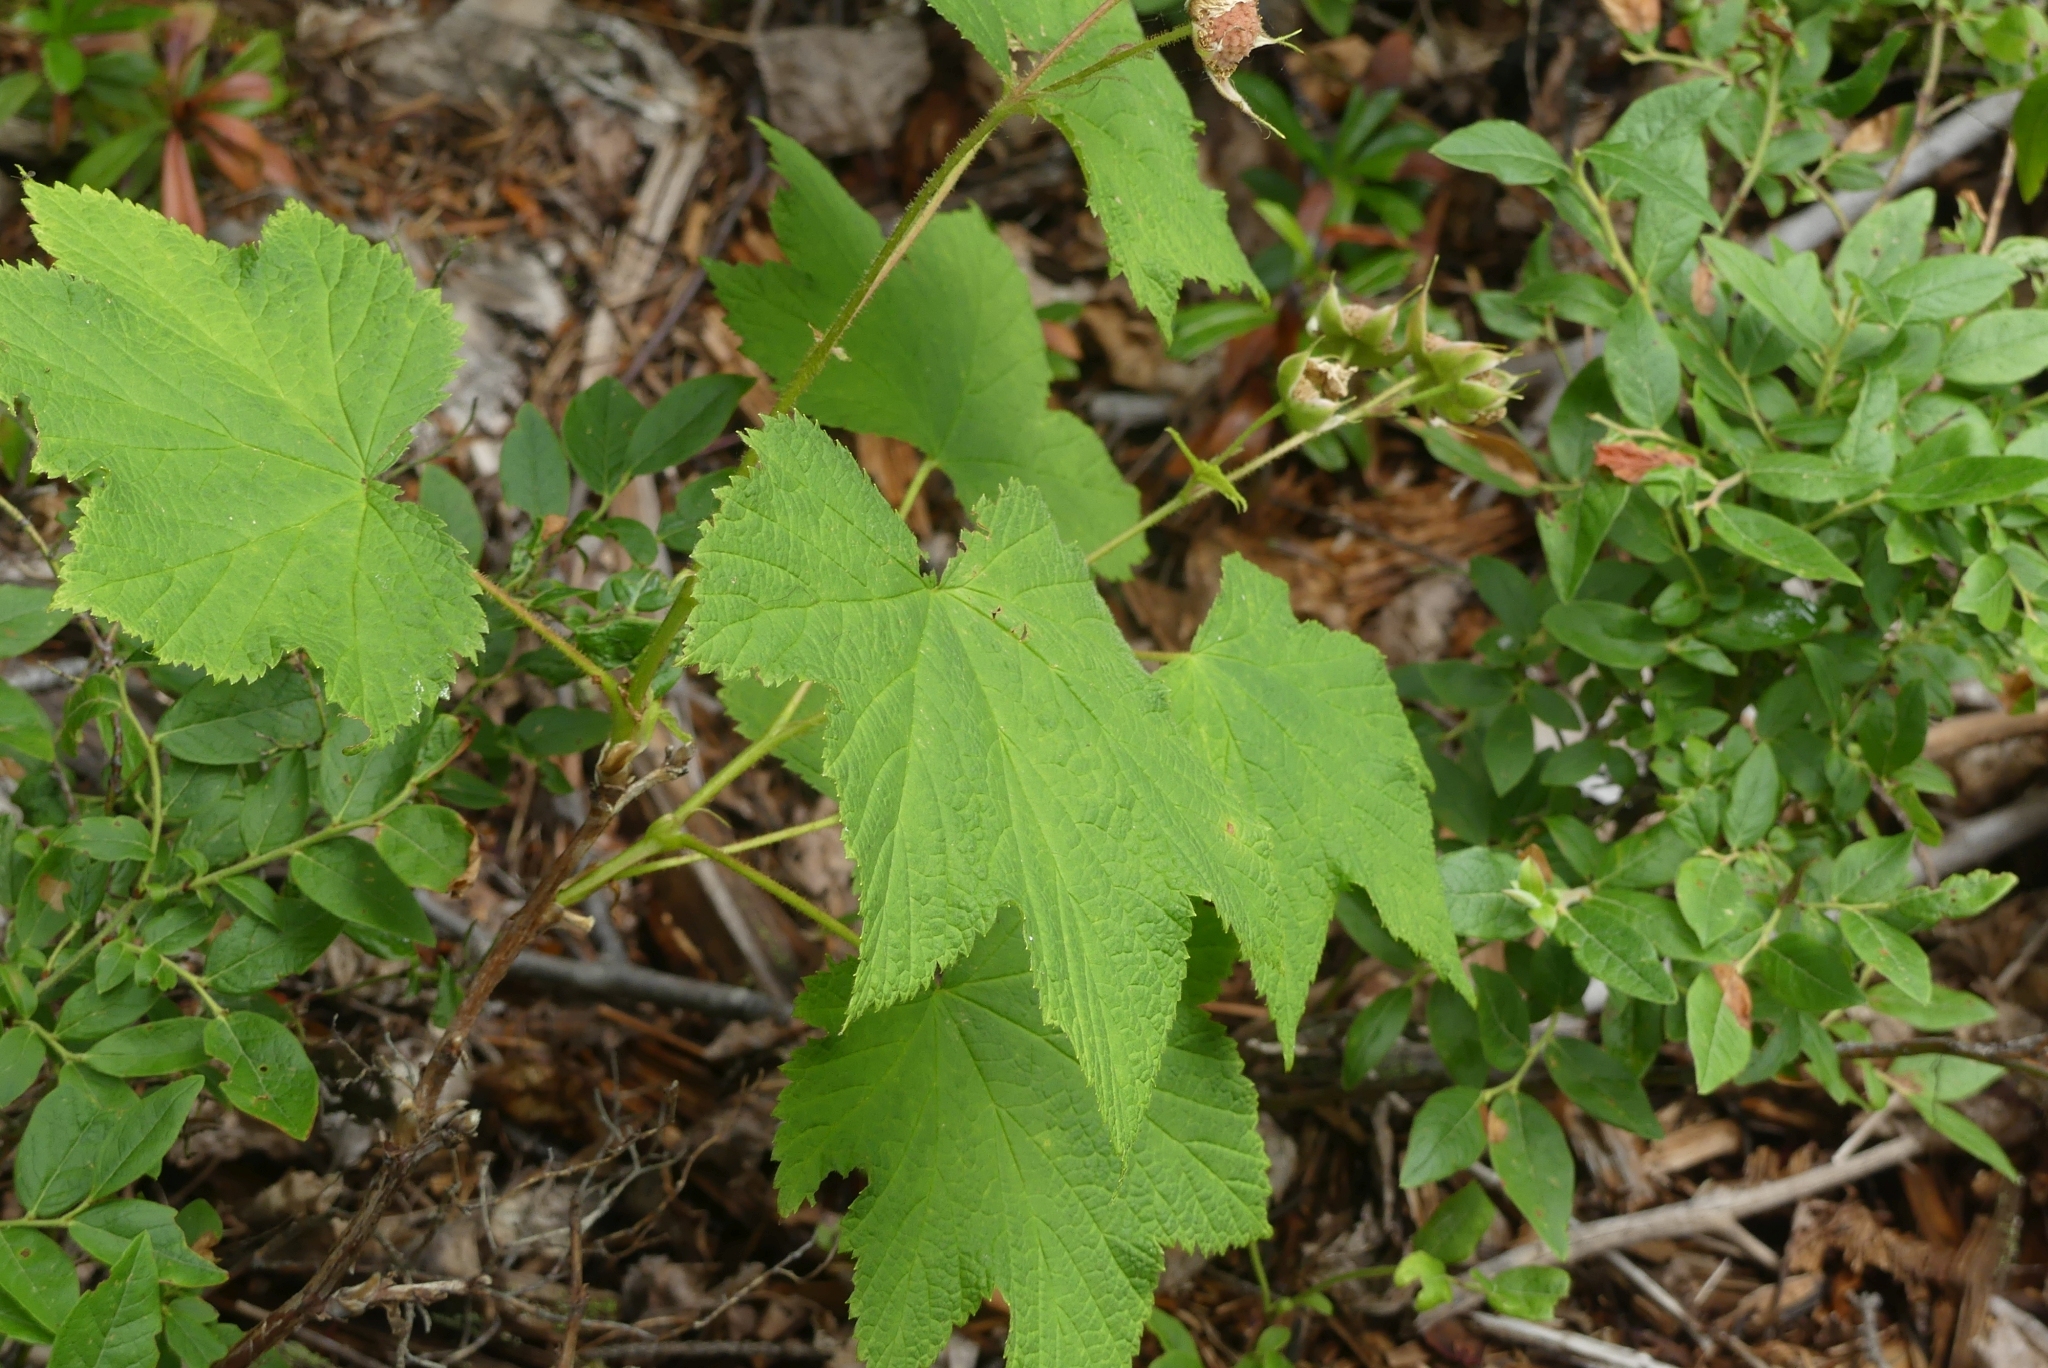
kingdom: Plantae
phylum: Tracheophyta
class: Magnoliopsida
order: Rosales
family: Rosaceae
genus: Rubus
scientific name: Rubus parviflorus
